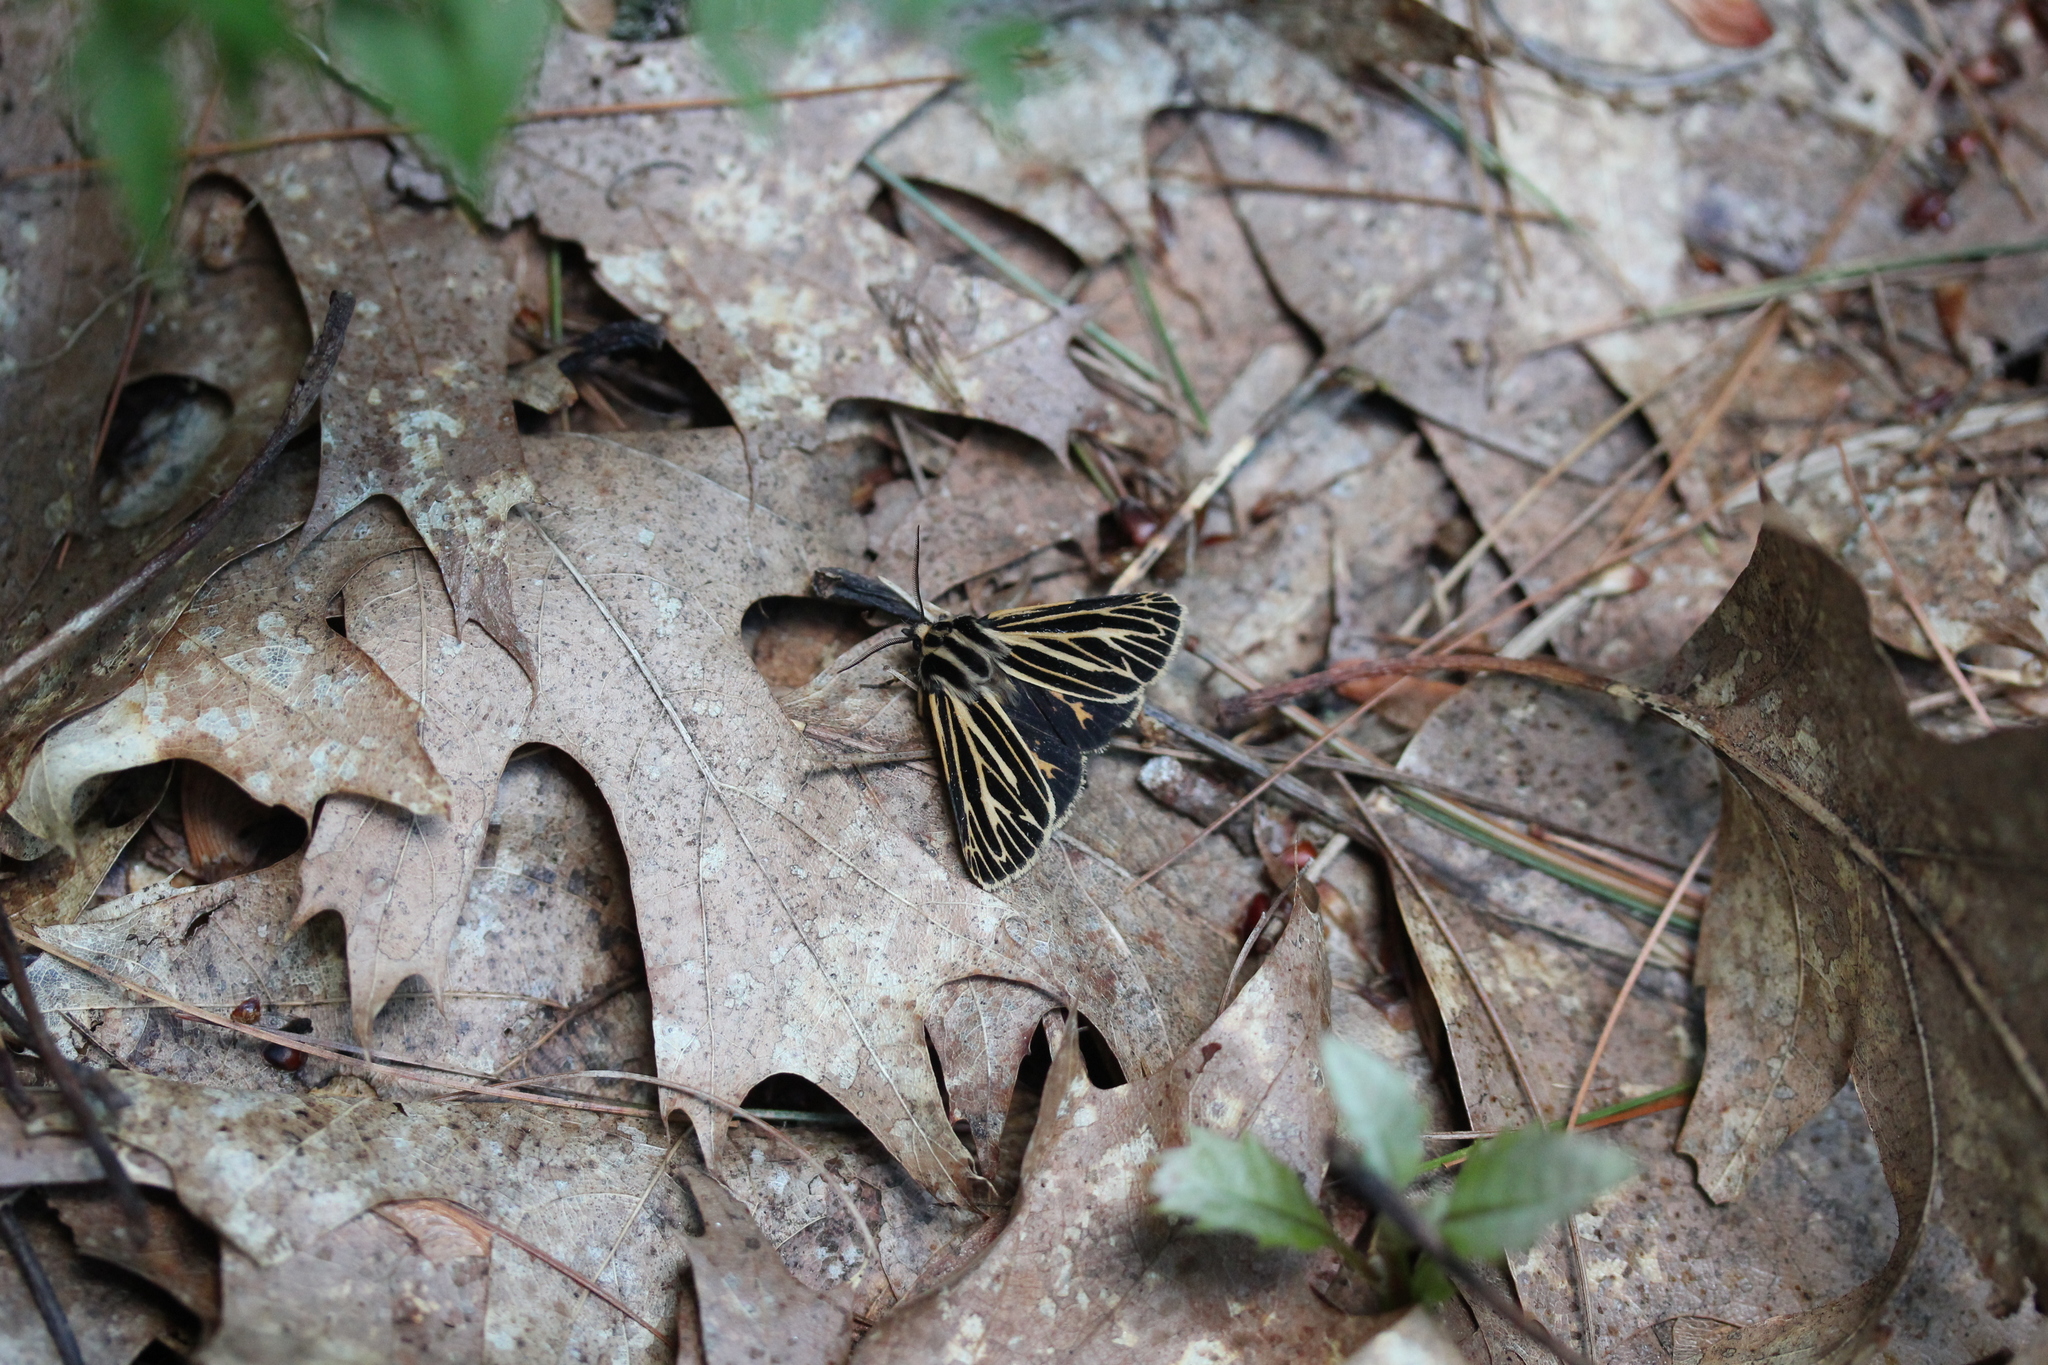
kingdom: Animalia
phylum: Arthropoda
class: Insecta
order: Lepidoptera
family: Erebidae
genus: Grammia
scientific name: Grammia virguncula
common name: Little tiger moth
